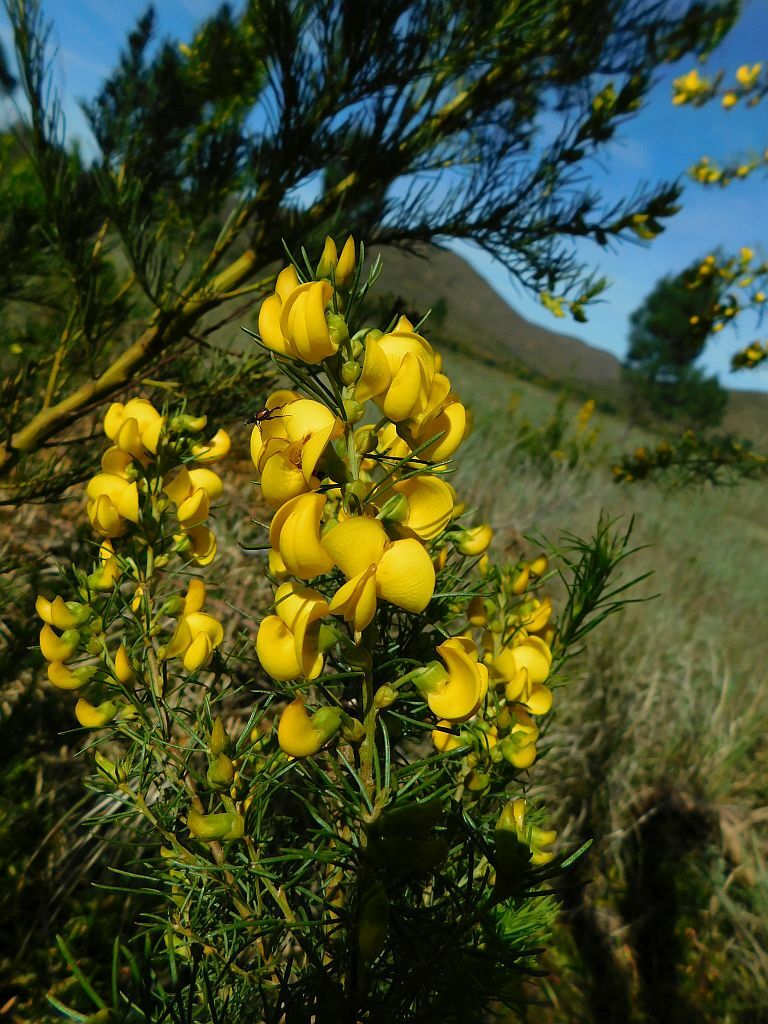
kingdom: Plantae
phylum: Tracheophyta
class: Magnoliopsida
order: Fabales
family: Fabaceae
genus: Cyclopia
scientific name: Cyclopia maculata
